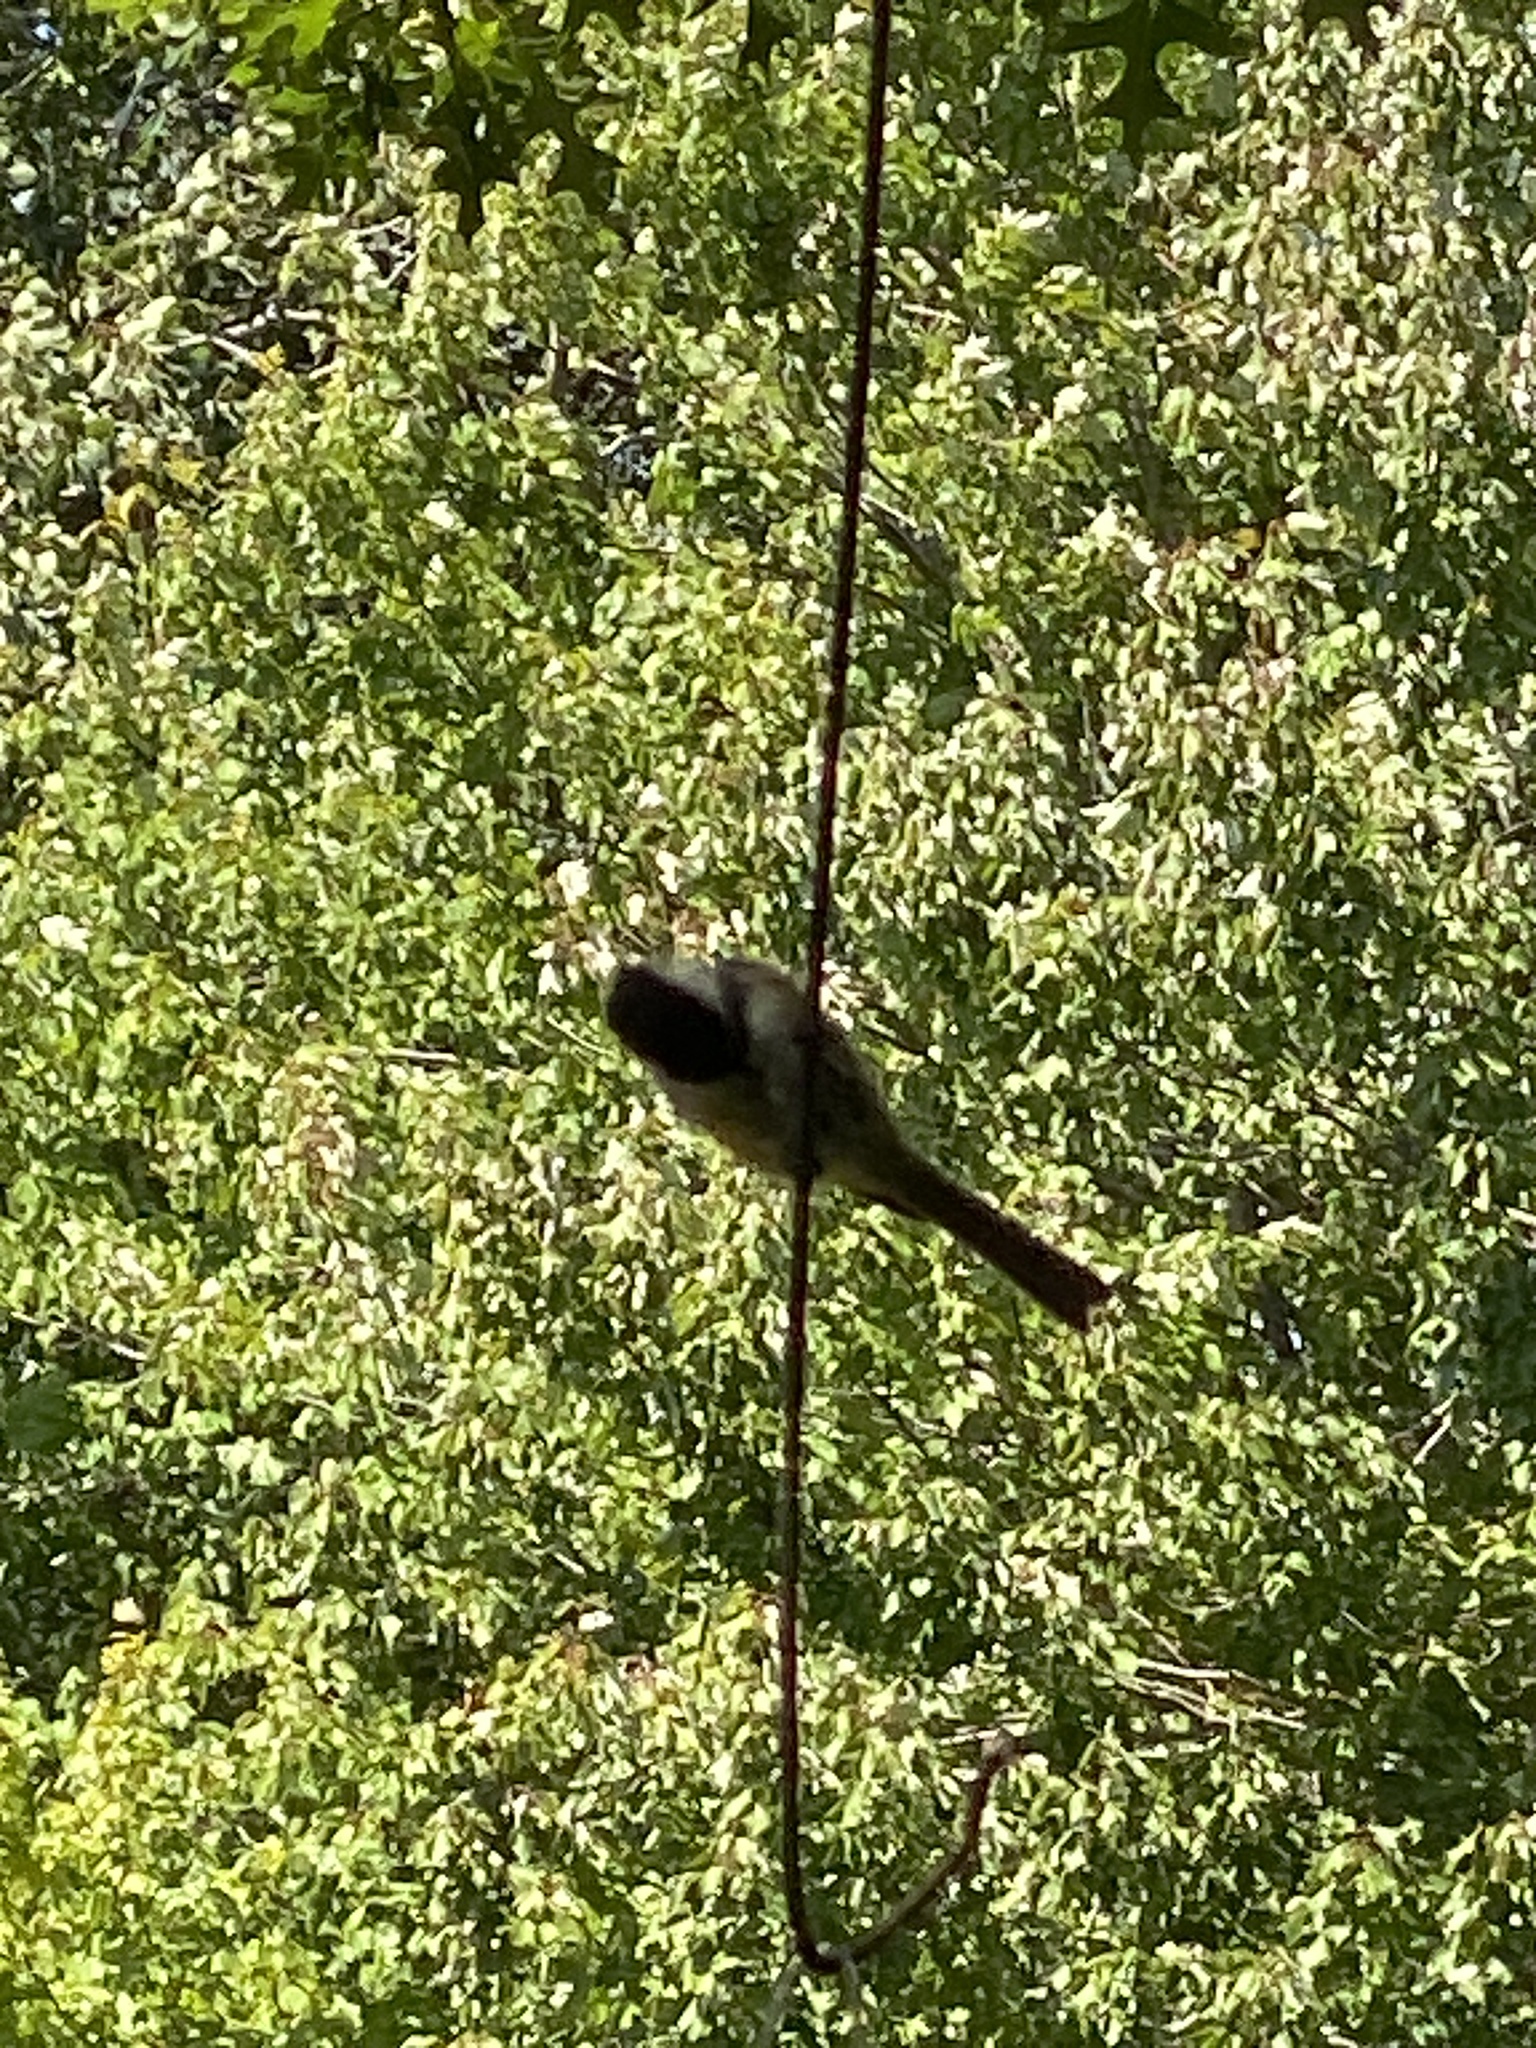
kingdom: Animalia
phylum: Chordata
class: Aves
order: Passeriformes
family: Paridae
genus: Poecile
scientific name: Poecile atricapillus
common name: Black-capped chickadee
